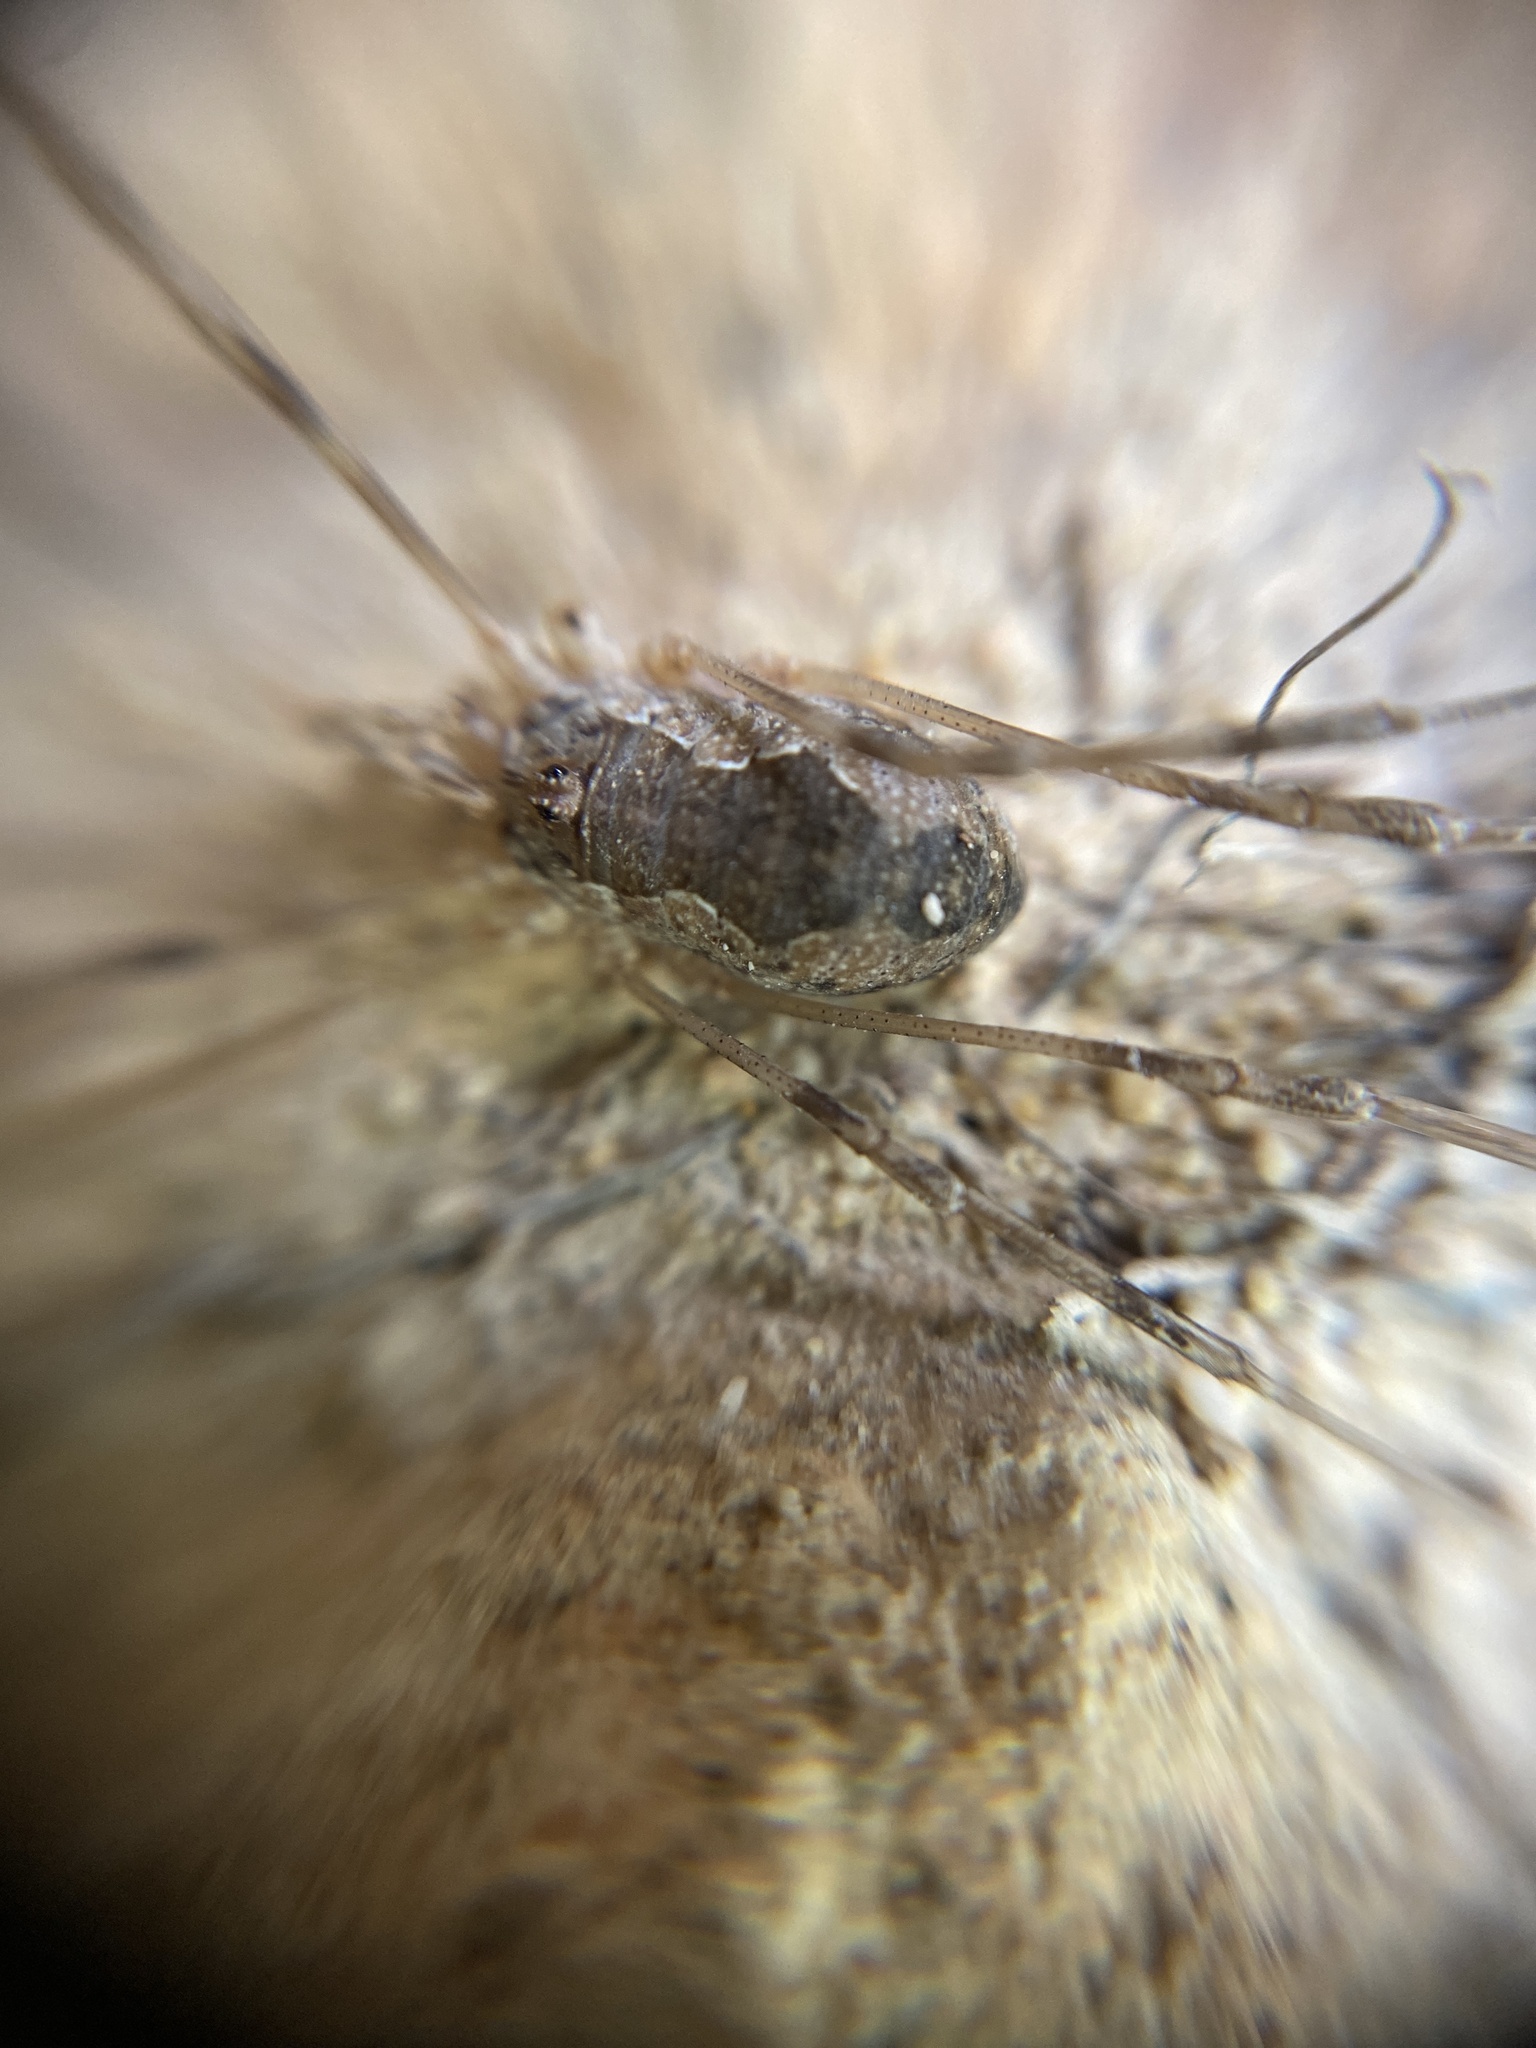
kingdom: Animalia
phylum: Arthropoda
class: Arachnida
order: Opiliones
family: Phalangiidae
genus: Phalangium
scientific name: Phalangium targionii
